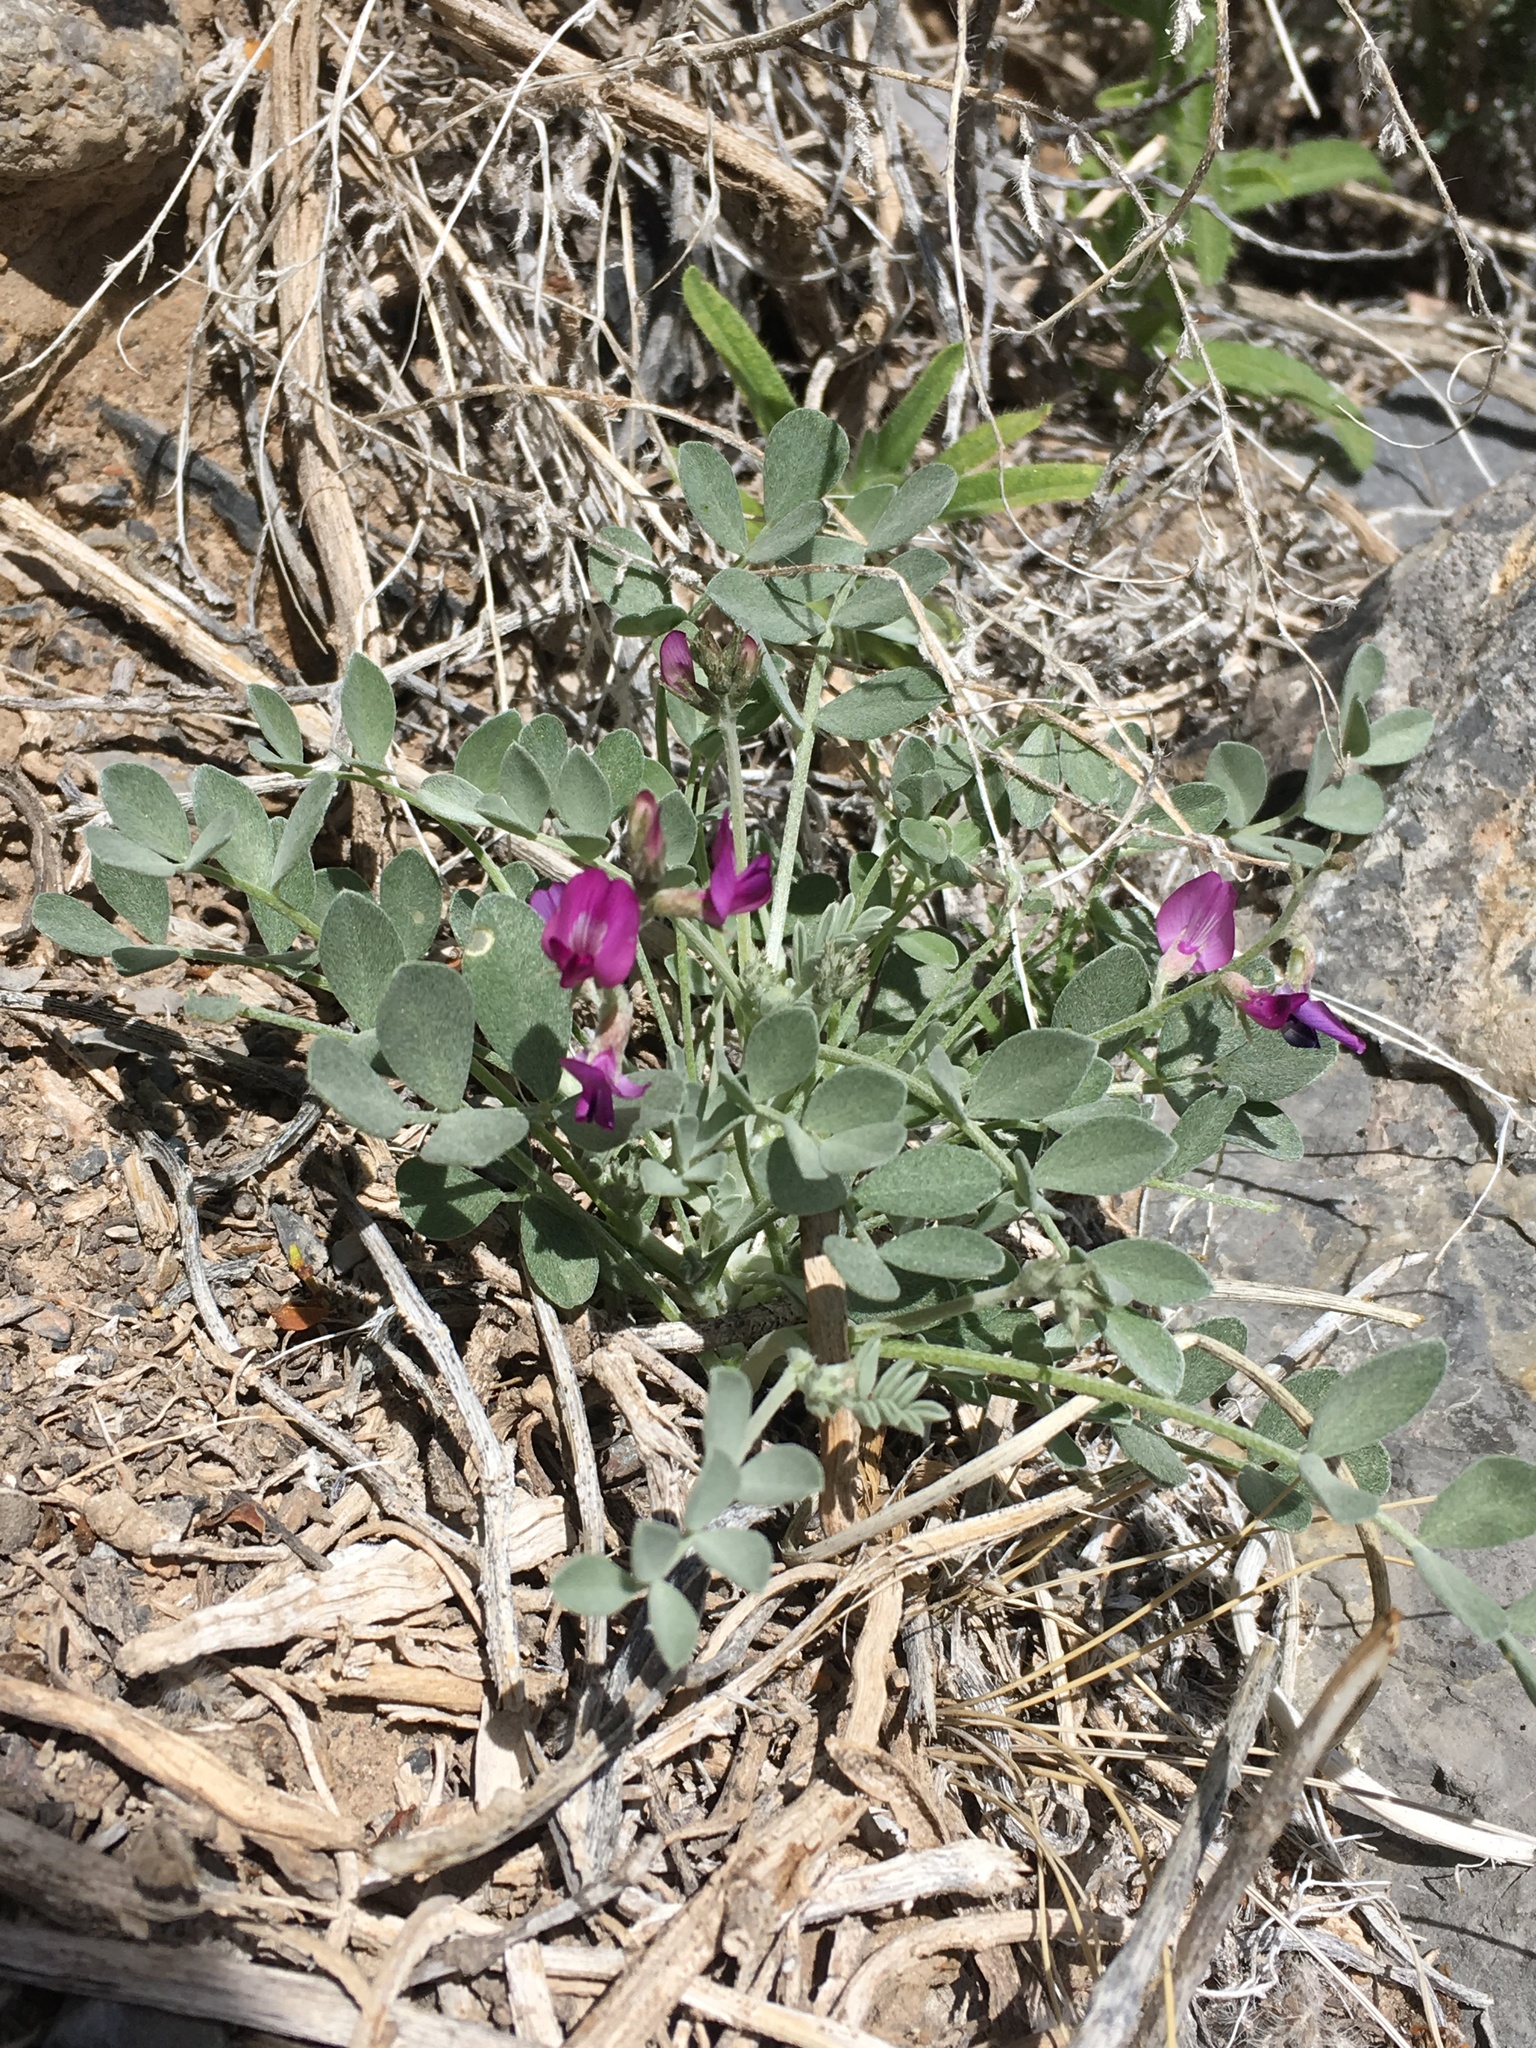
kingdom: Plantae
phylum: Tracheophyta
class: Magnoliopsida
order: Fabales
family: Fabaceae
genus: Astragalus
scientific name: Astragalus mohavensis
